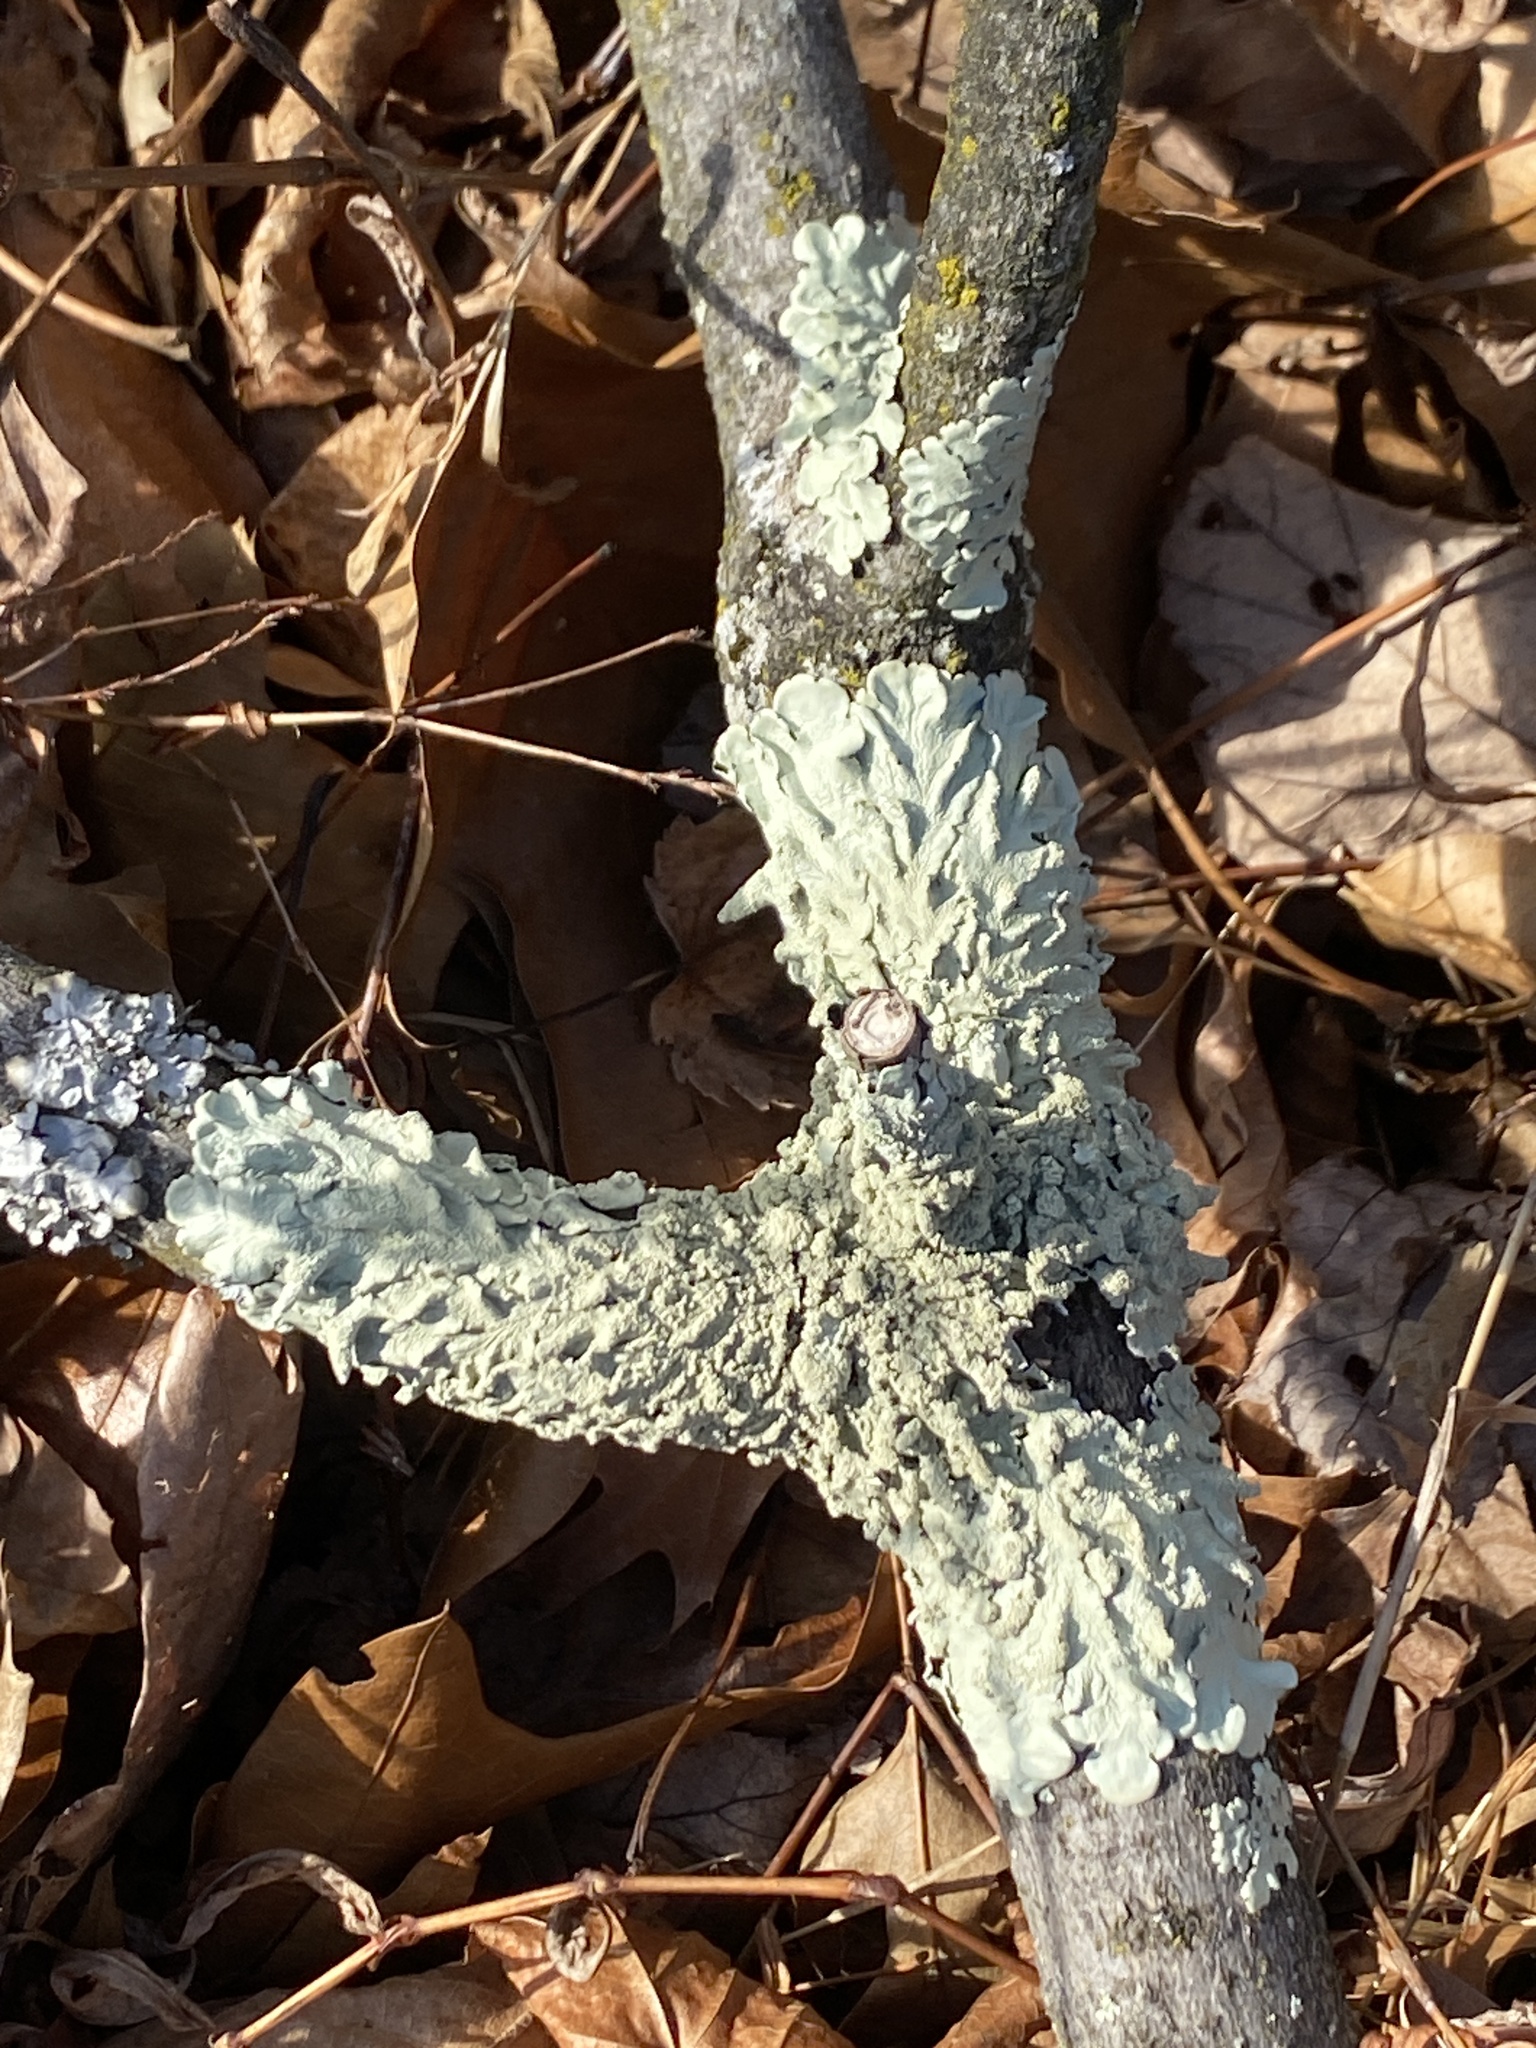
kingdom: Fungi
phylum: Ascomycota
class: Lecanoromycetes
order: Lecanorales
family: Parmeliaceae
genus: Flavoparmelia
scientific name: Flavoparmelia caperata
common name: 40-mile per hour lichen
